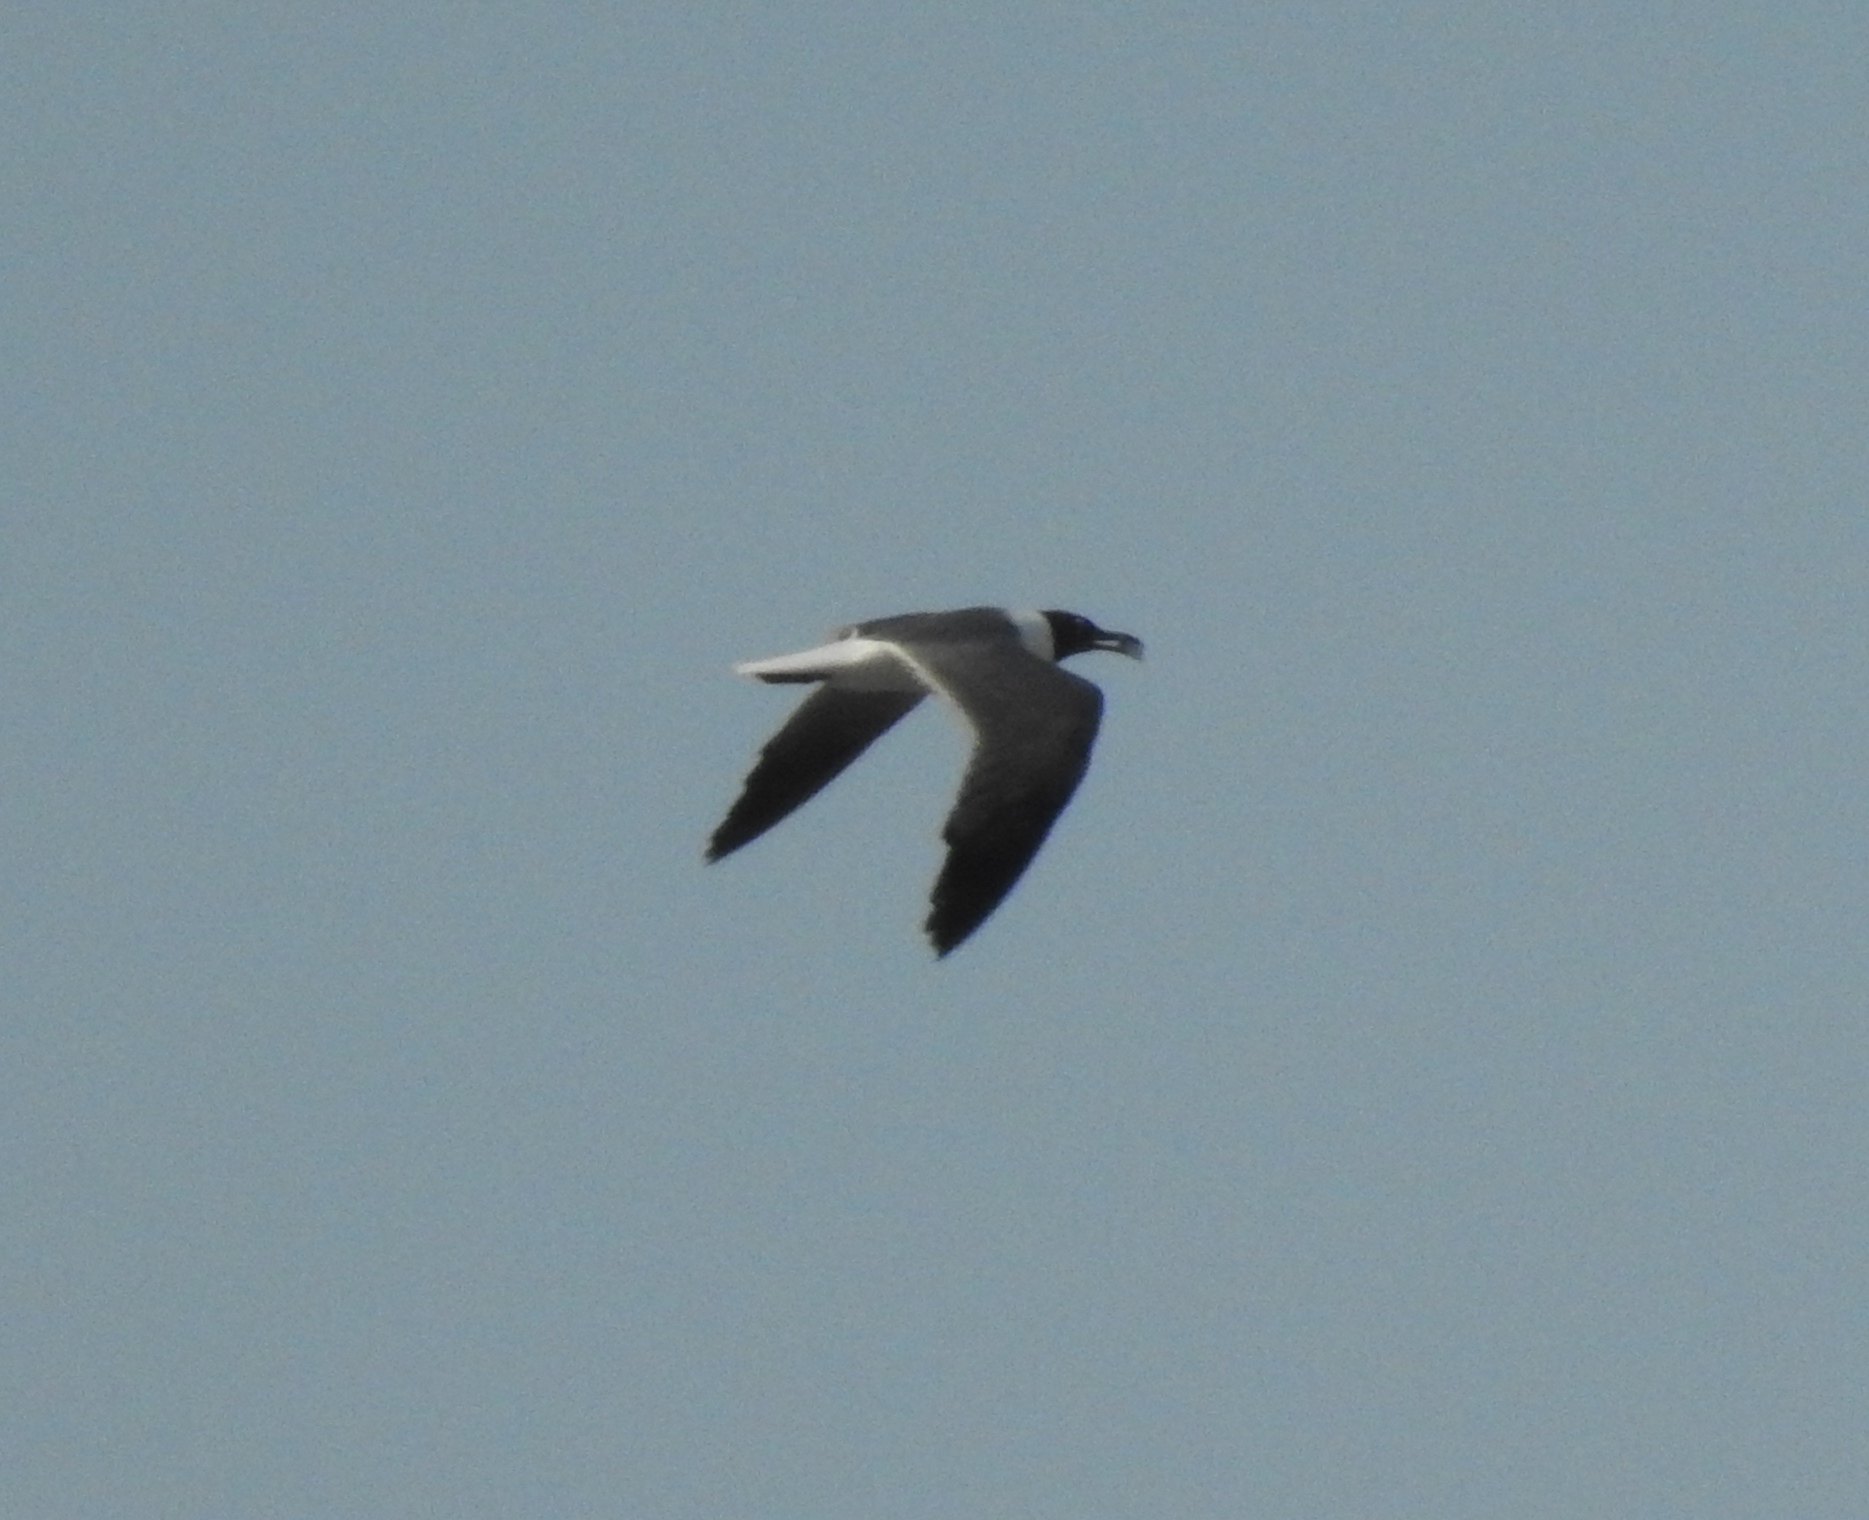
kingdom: Animalia
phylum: Chordata
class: Aves
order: Charadriiformes
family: Laridae
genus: Leucophaeus
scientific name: Leucophaeus atricilla
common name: Laughing gull
